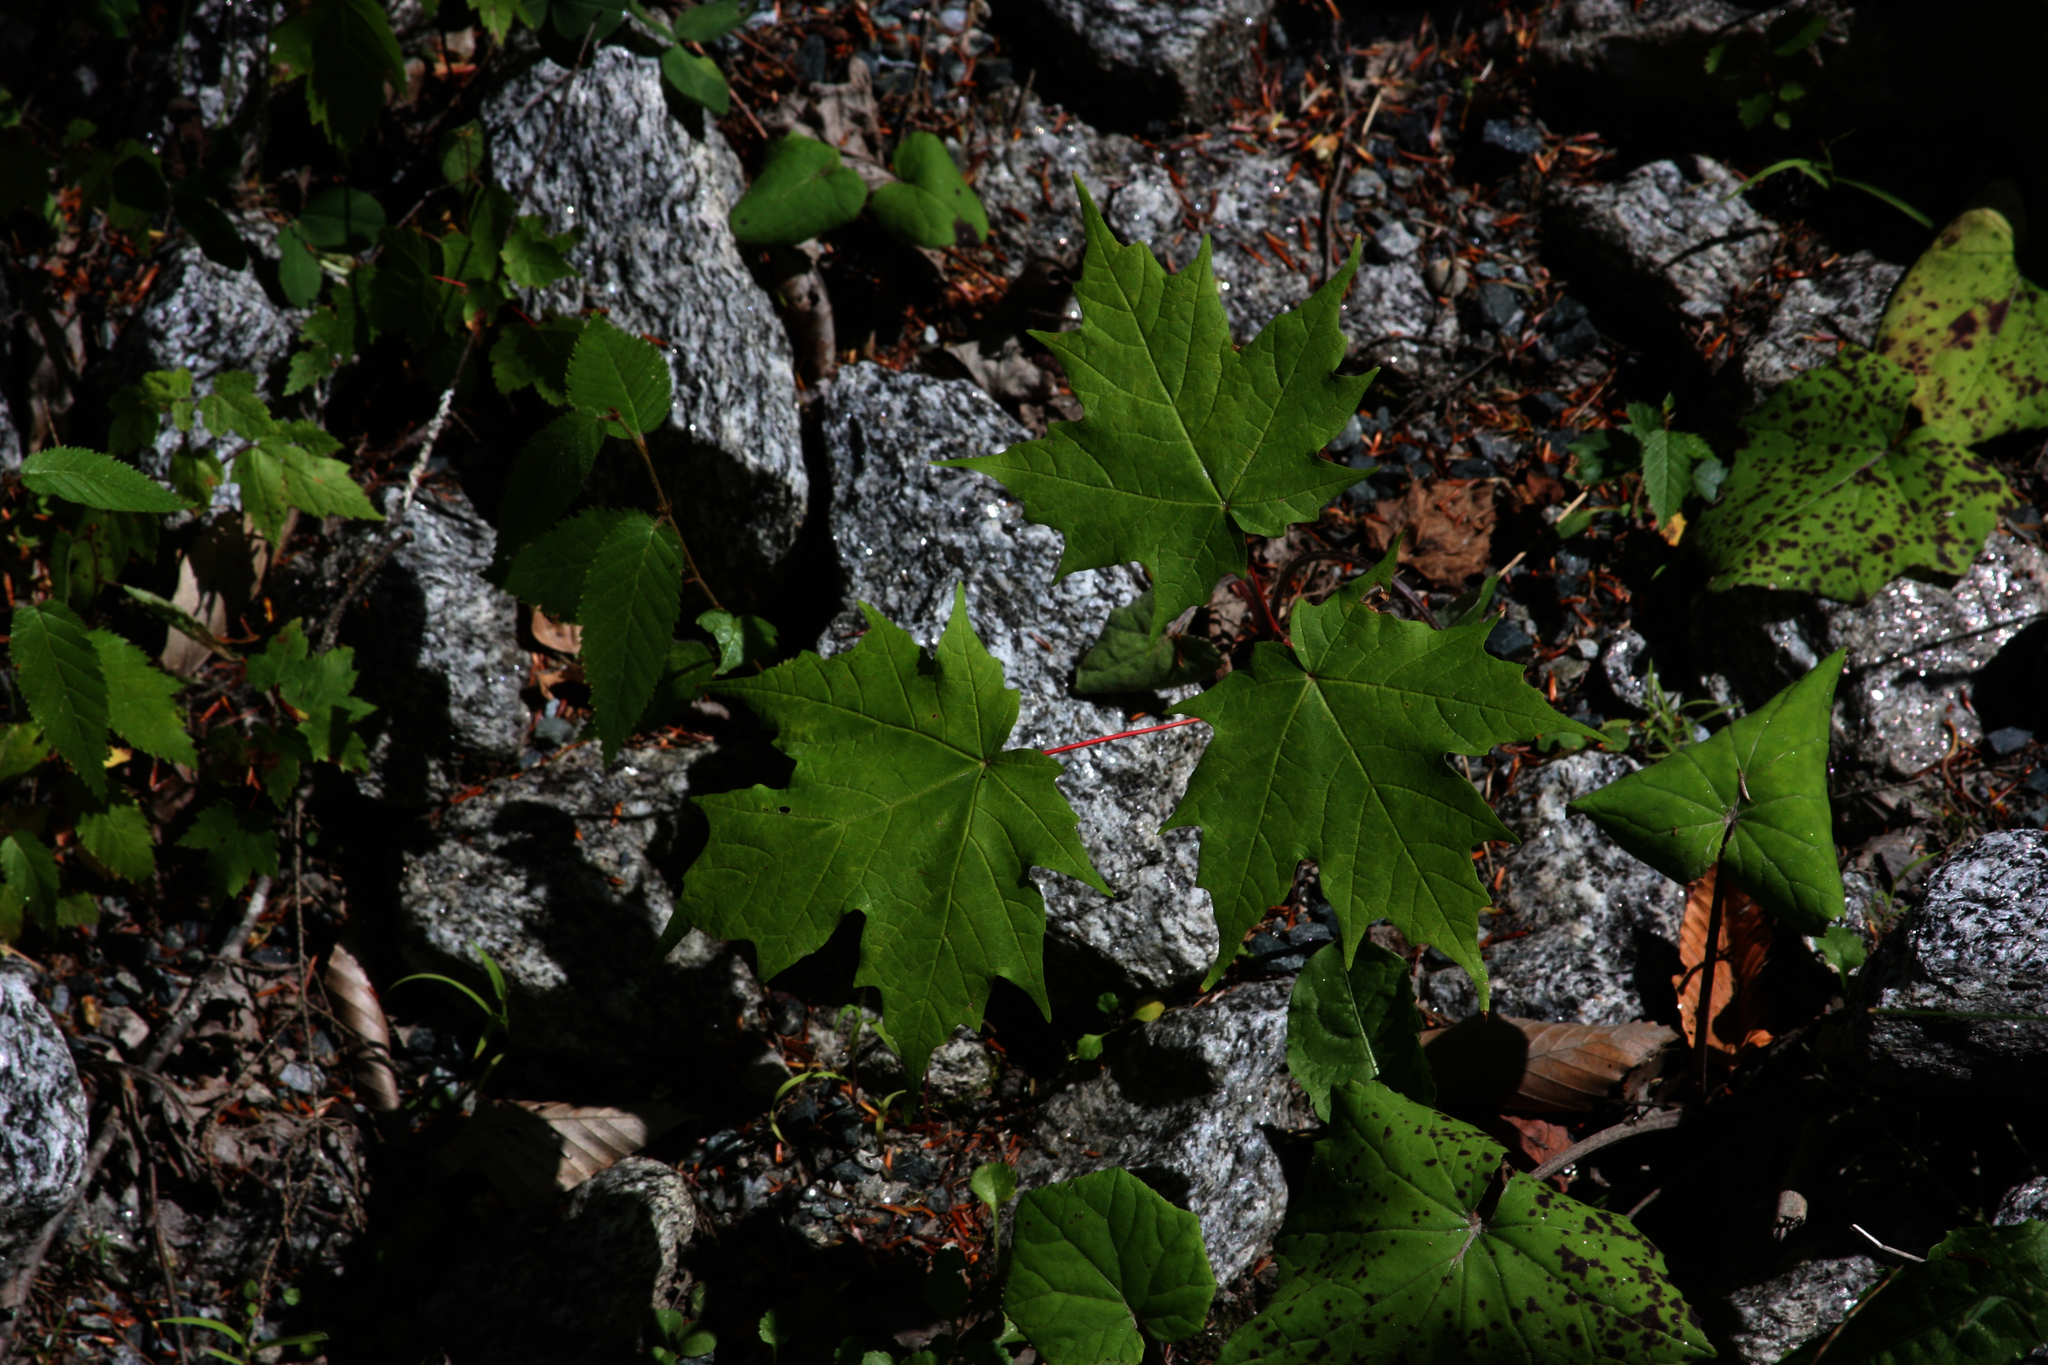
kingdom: Plantae
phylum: Tracheophyta
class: Magnoliopsida
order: Sapindales
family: Sapindaceae
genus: Acer
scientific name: Acer saccharum
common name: Sugar maple
